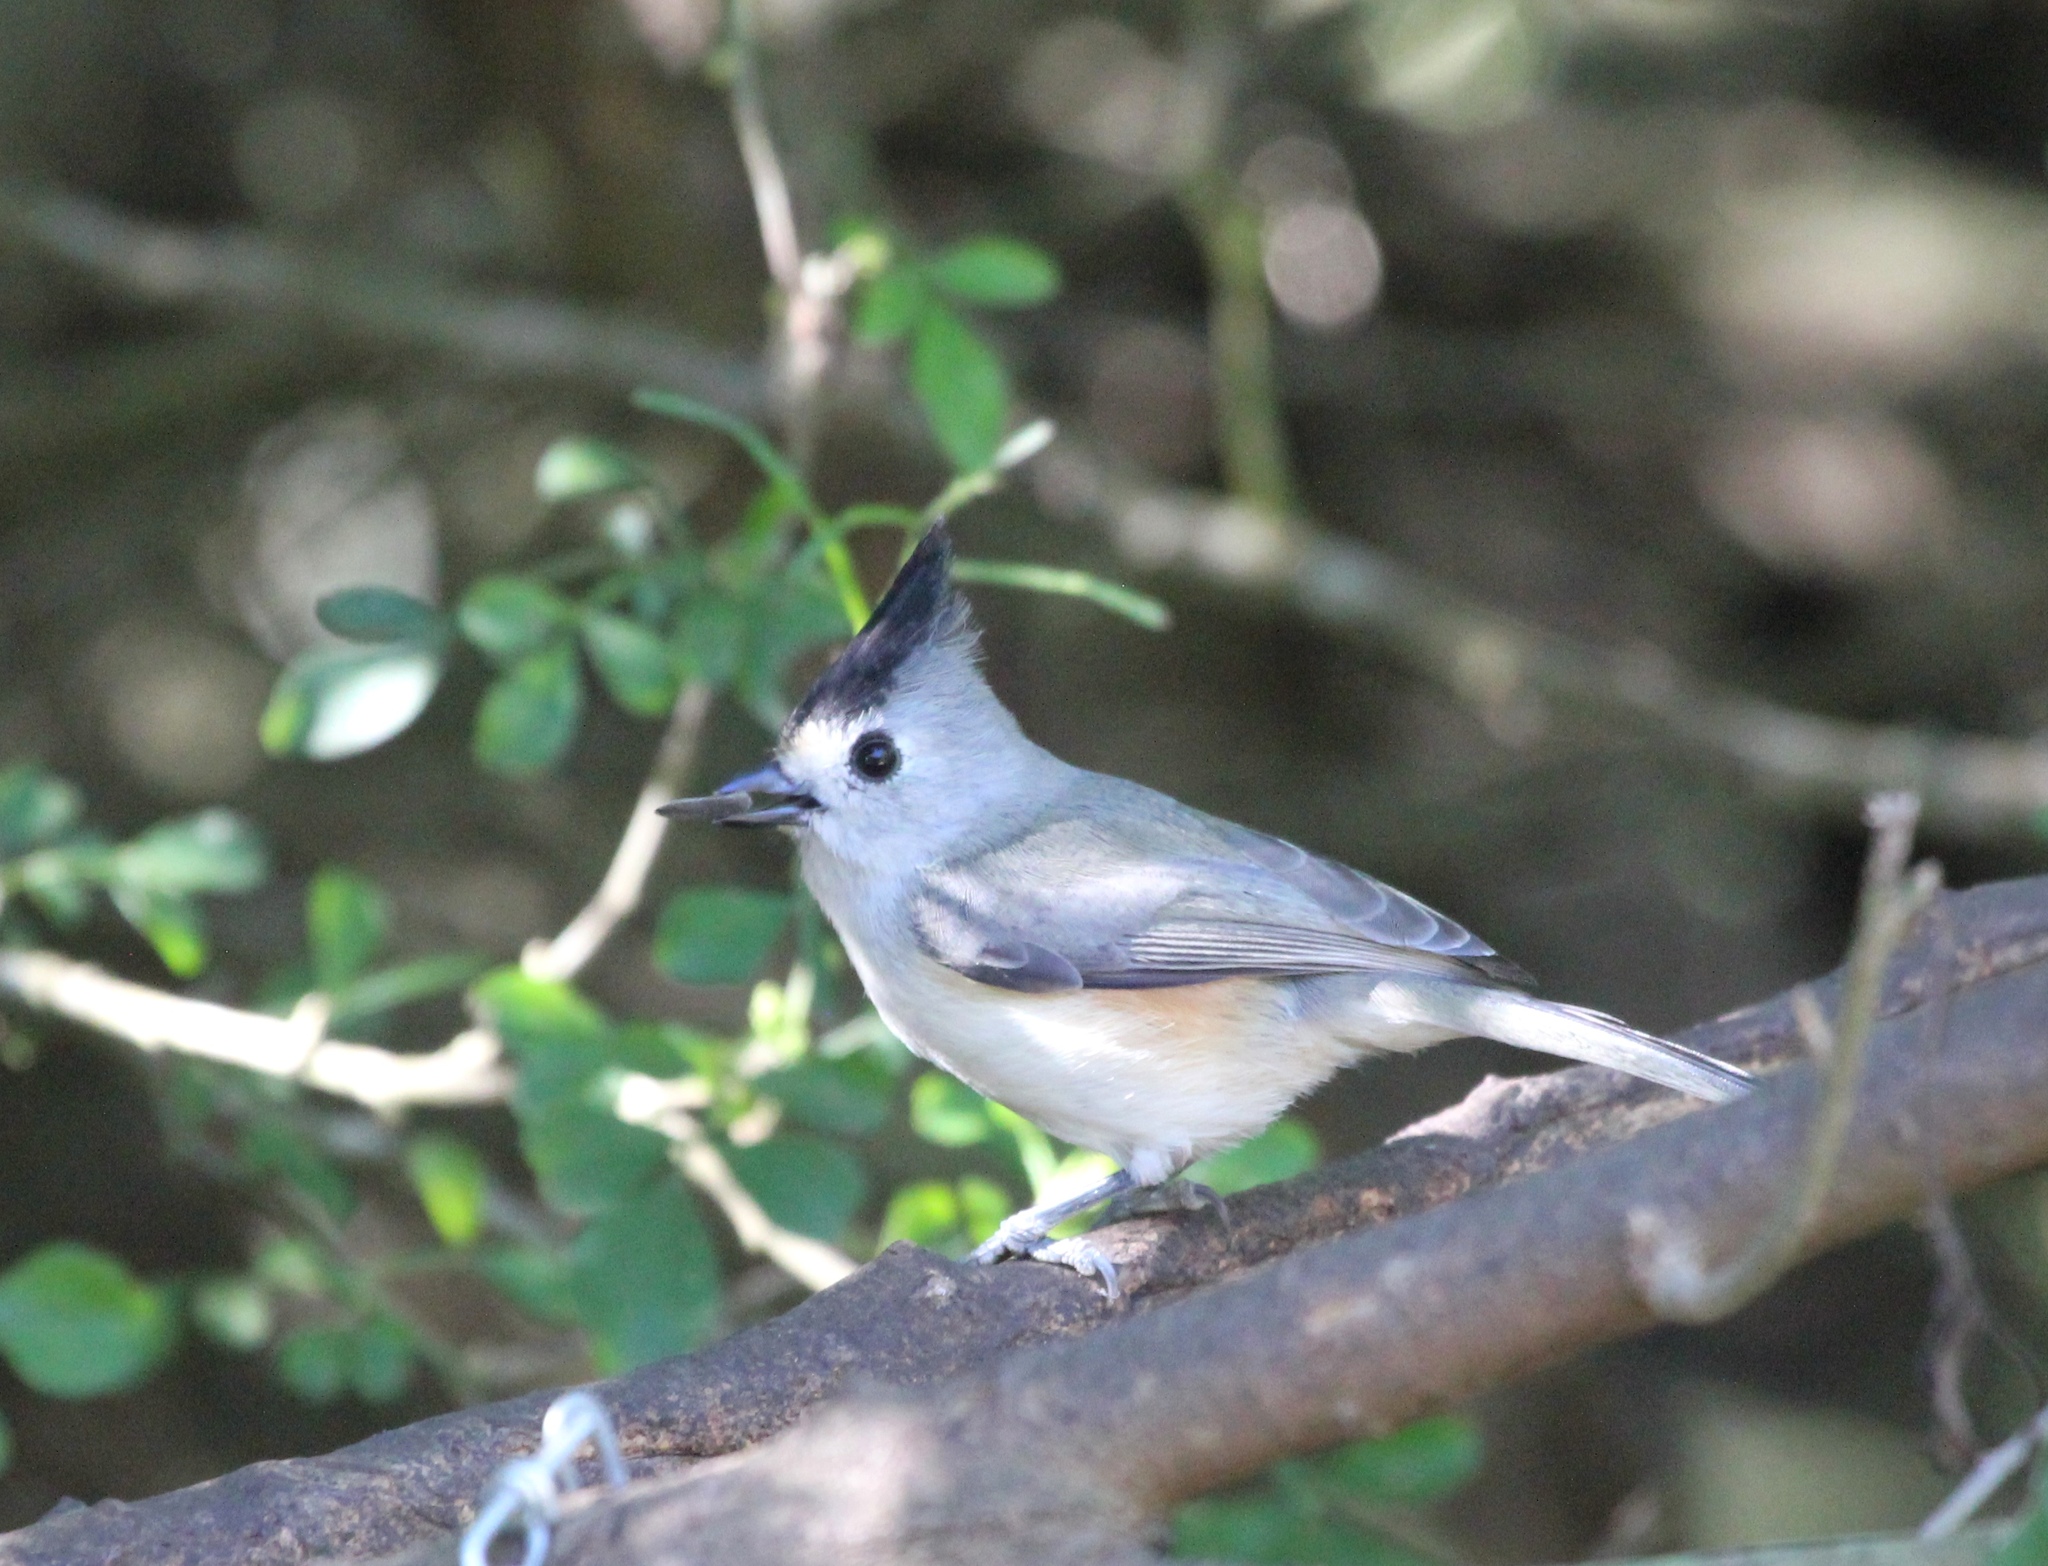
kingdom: Animalia
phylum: Chordata
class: Aves
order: Passeriformes
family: Paridae
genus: Baeolophus
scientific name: Baeolophus atricristatus
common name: Black-crested titmouse
